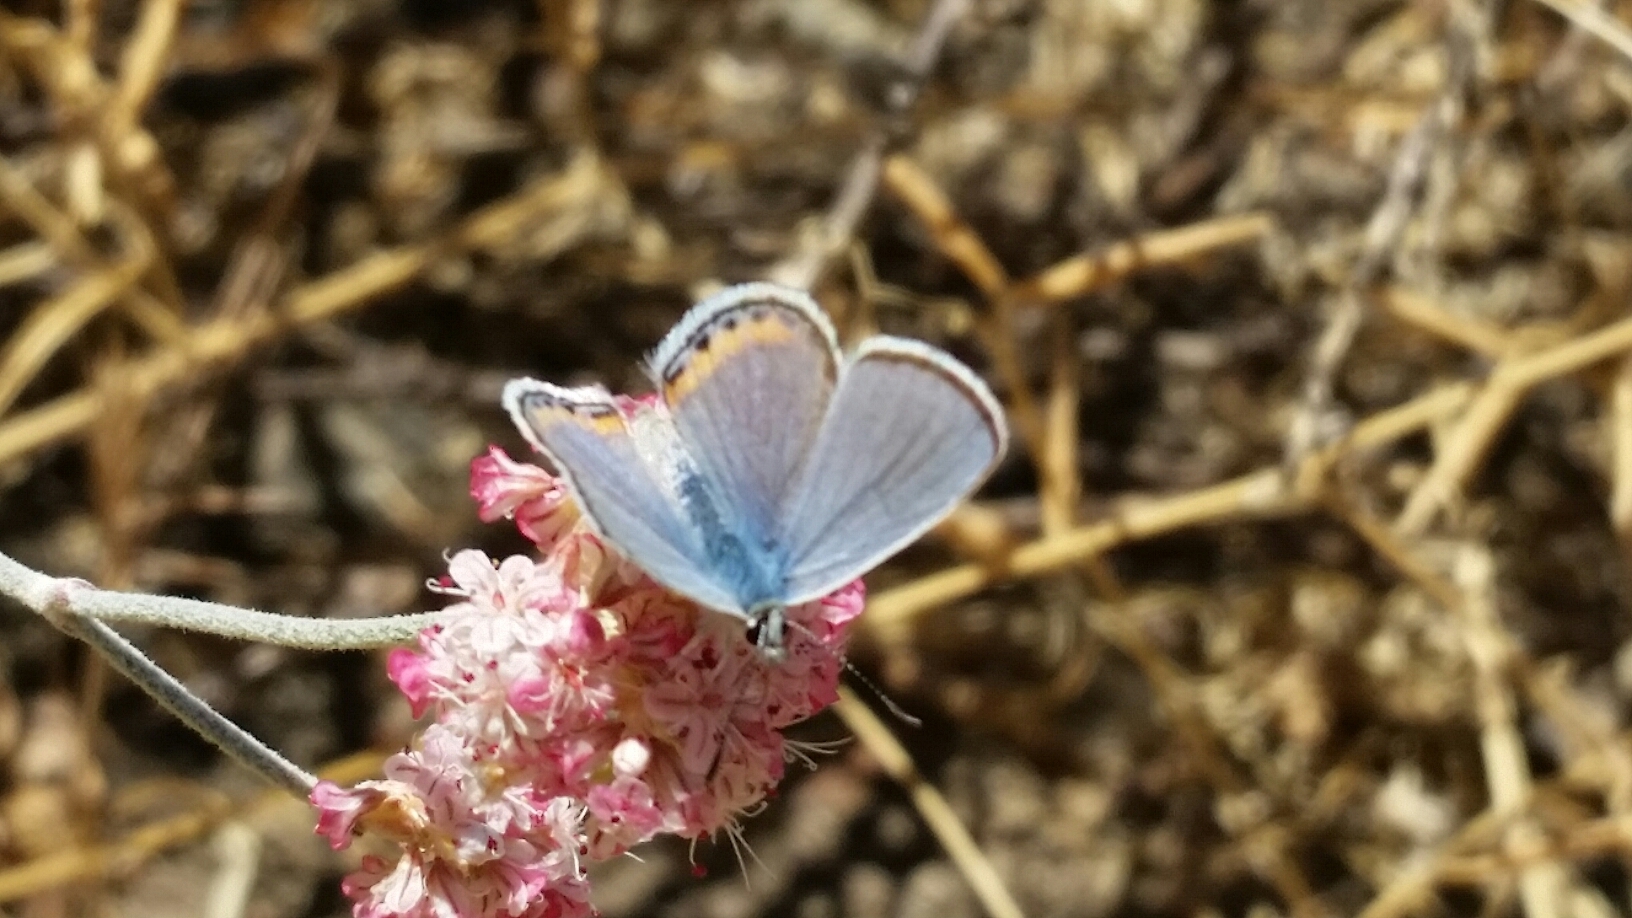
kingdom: Plantae
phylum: Tracheophyta
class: Magnoliopsida
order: Caryophyllales
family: Polygonaceae
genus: Eriogonum
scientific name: Eriogonum nudum
